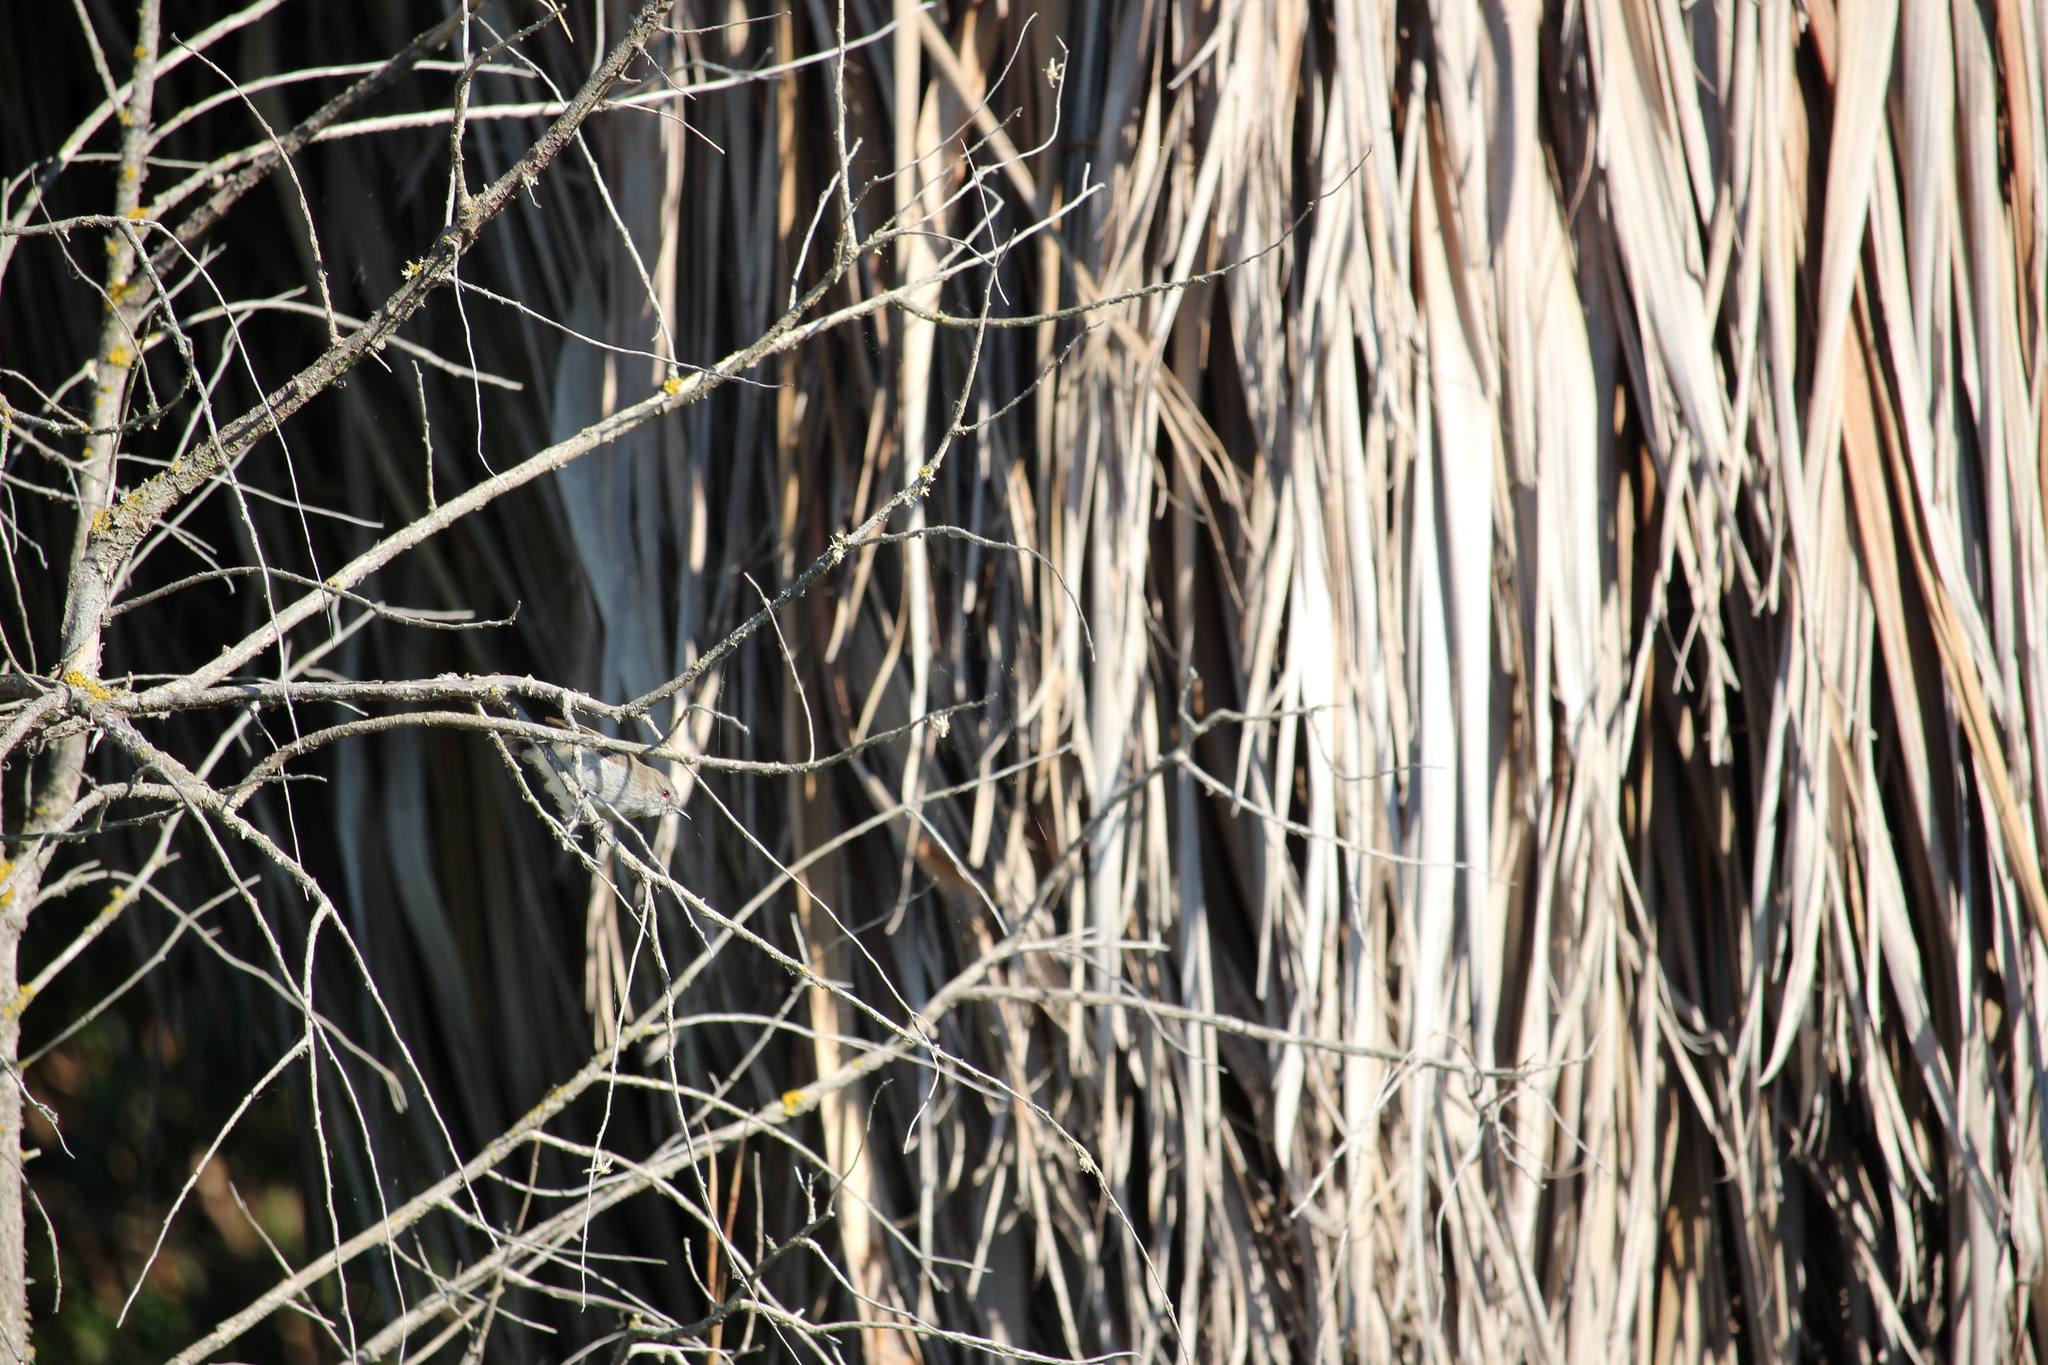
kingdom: Animalia
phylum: Chordata
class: Aves
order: Passeriformes
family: Acanthizidae
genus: Gerygone
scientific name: Gerygone igata
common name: Grey gerygone
